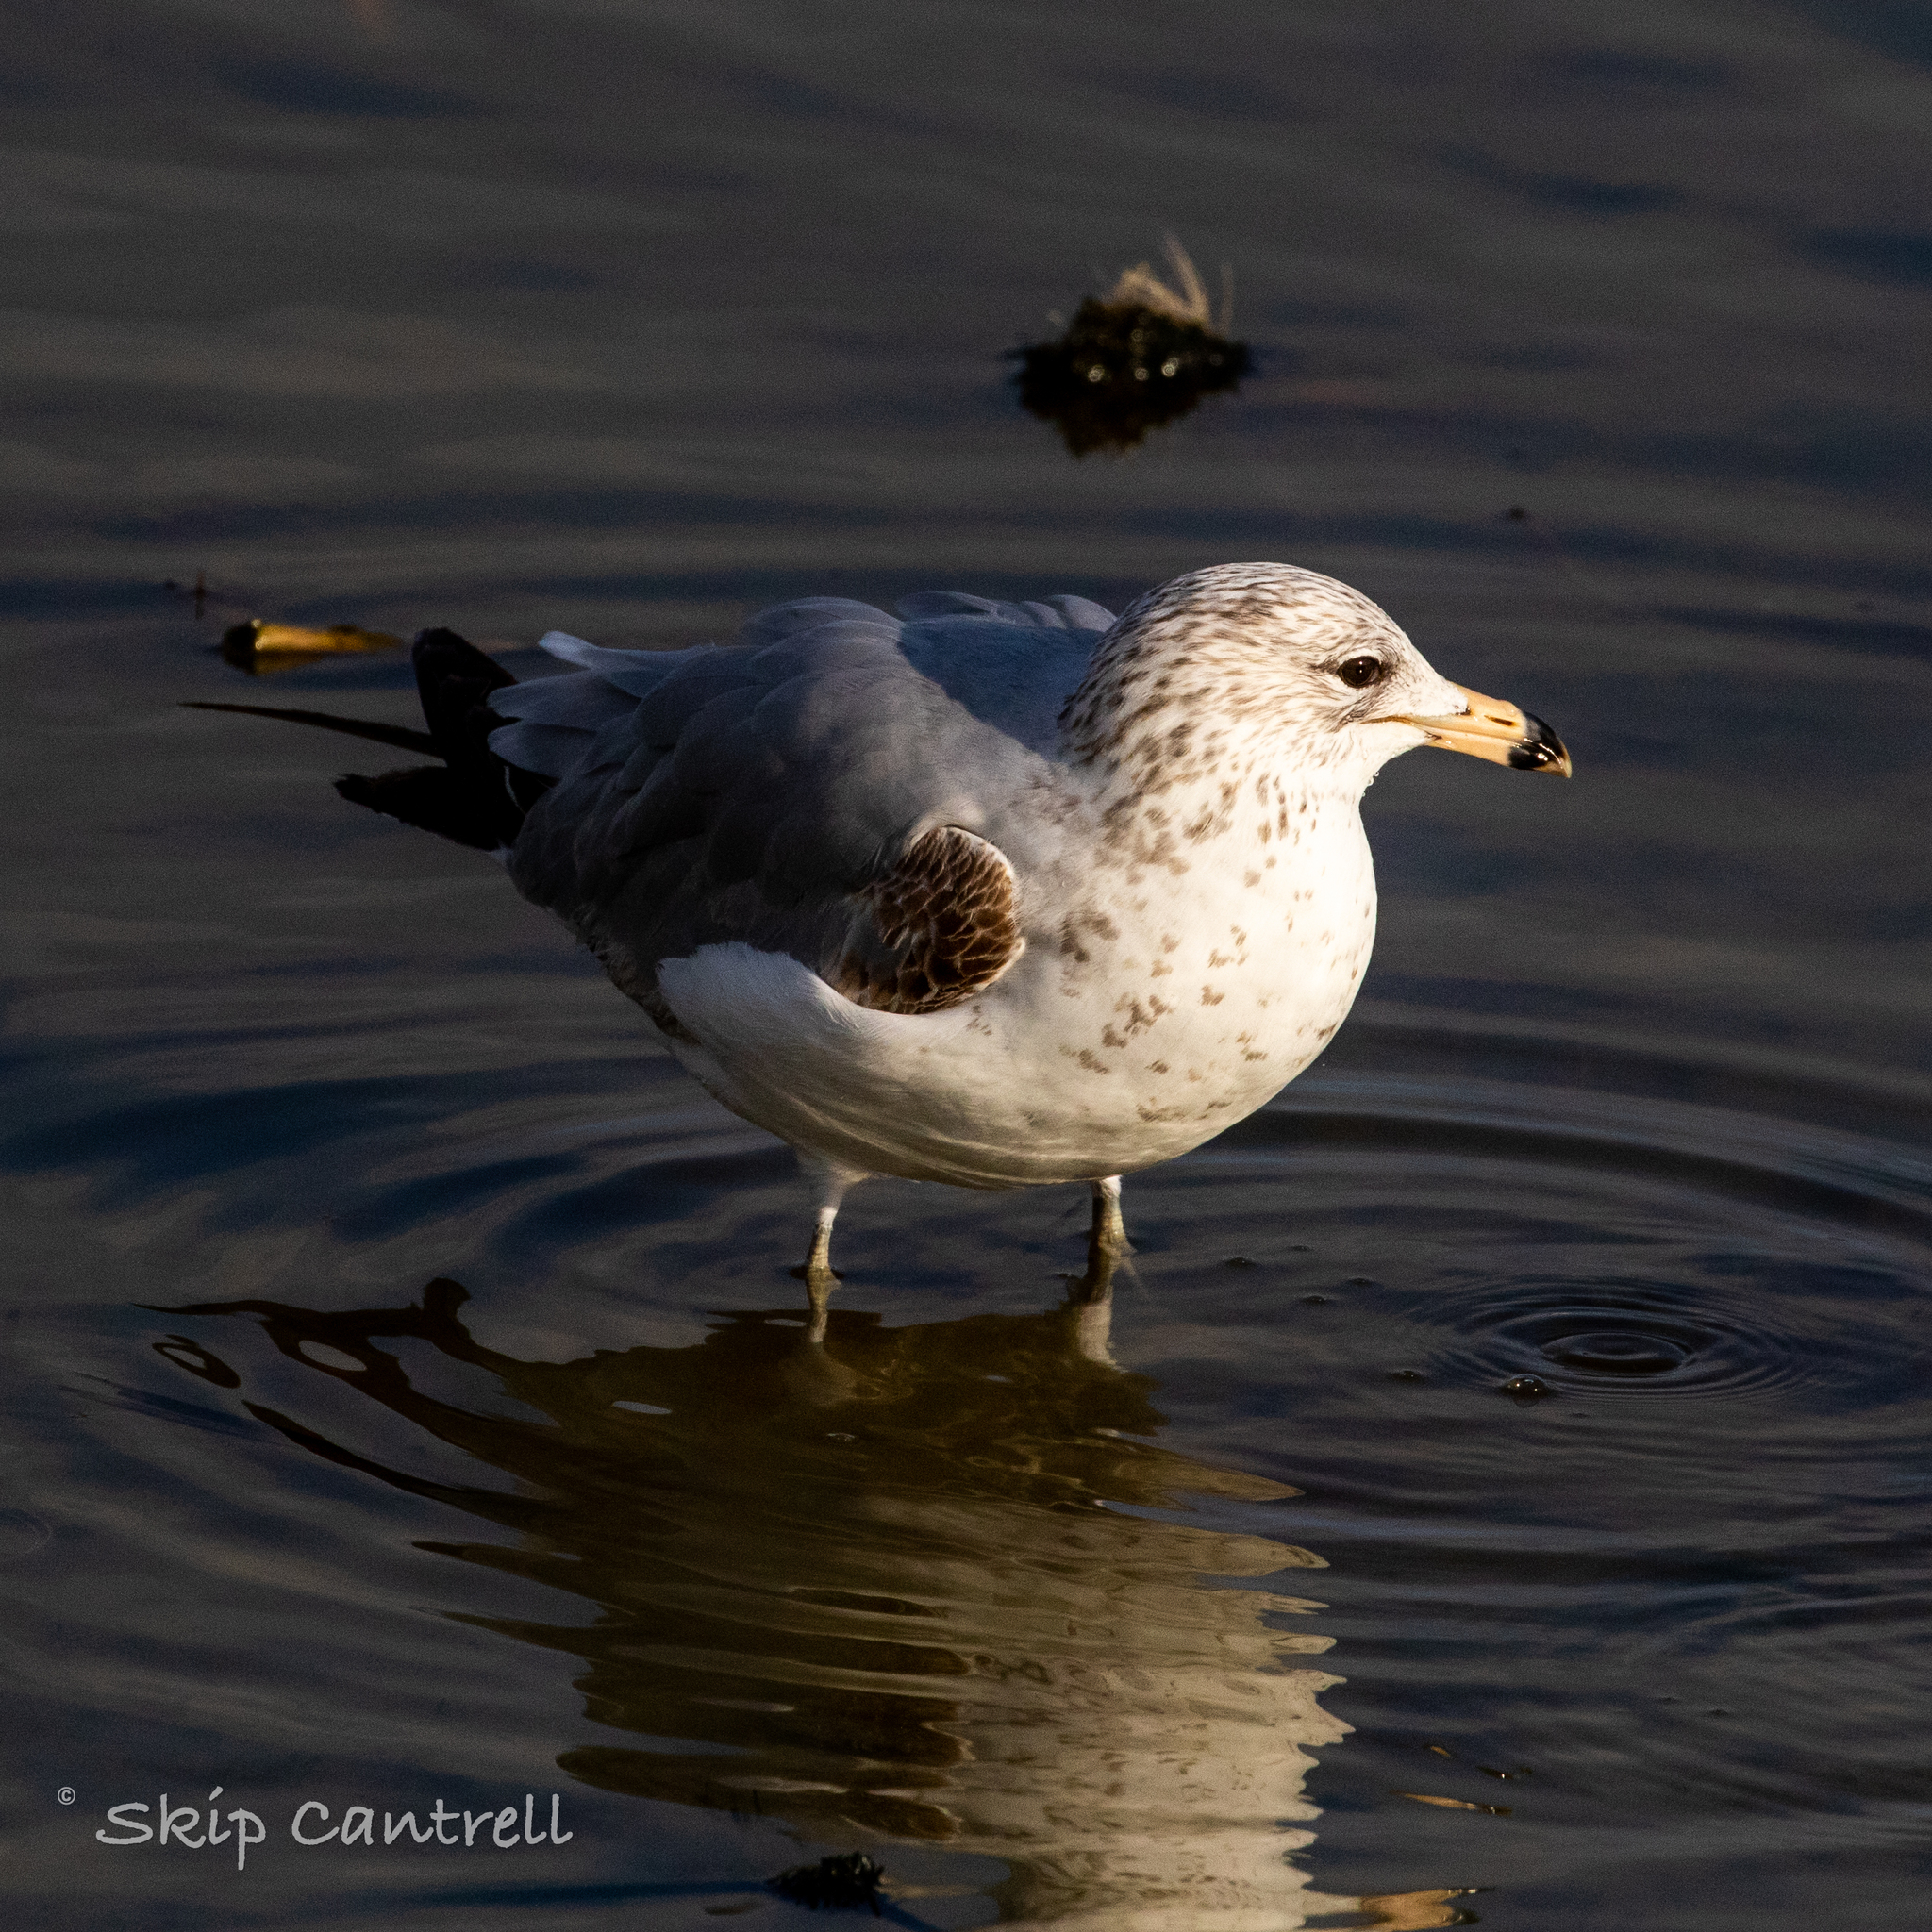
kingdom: Animalia
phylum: Chordata
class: Aves
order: Charadriiformes
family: Laridae
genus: Larus
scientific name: Larus delawarensis
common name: Ring-billed gull
